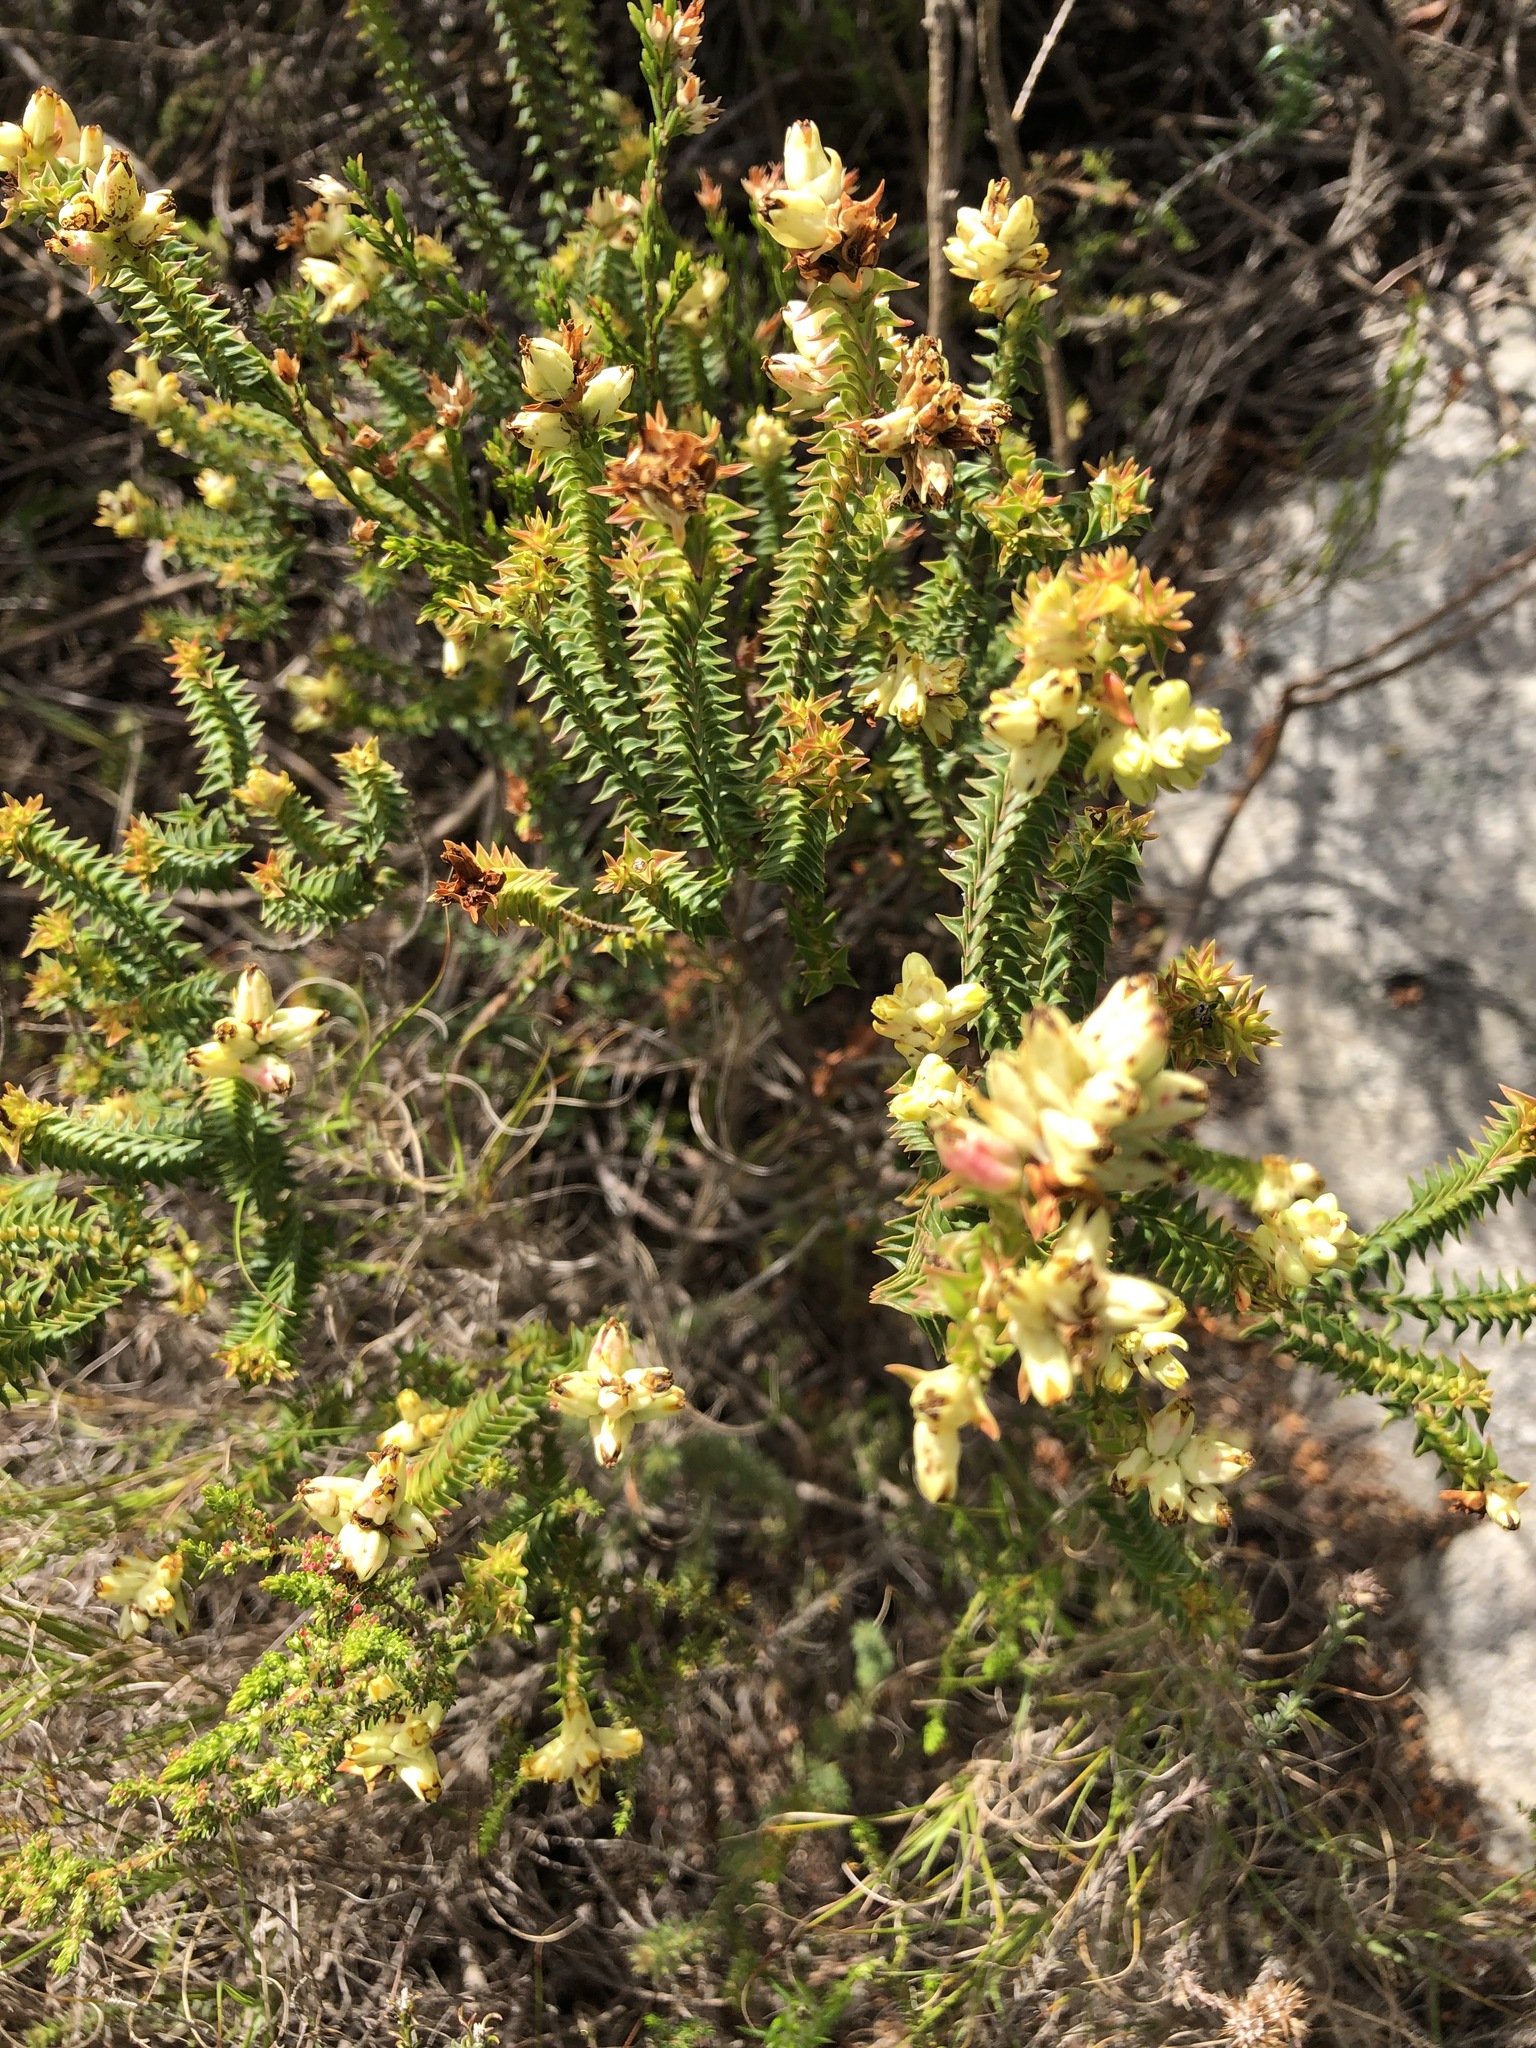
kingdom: Plantae
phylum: Tracheophyta
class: Magnoliopsida
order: Myrtales
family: Penaeaceae
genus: Penaea
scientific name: Penaea mucronata
